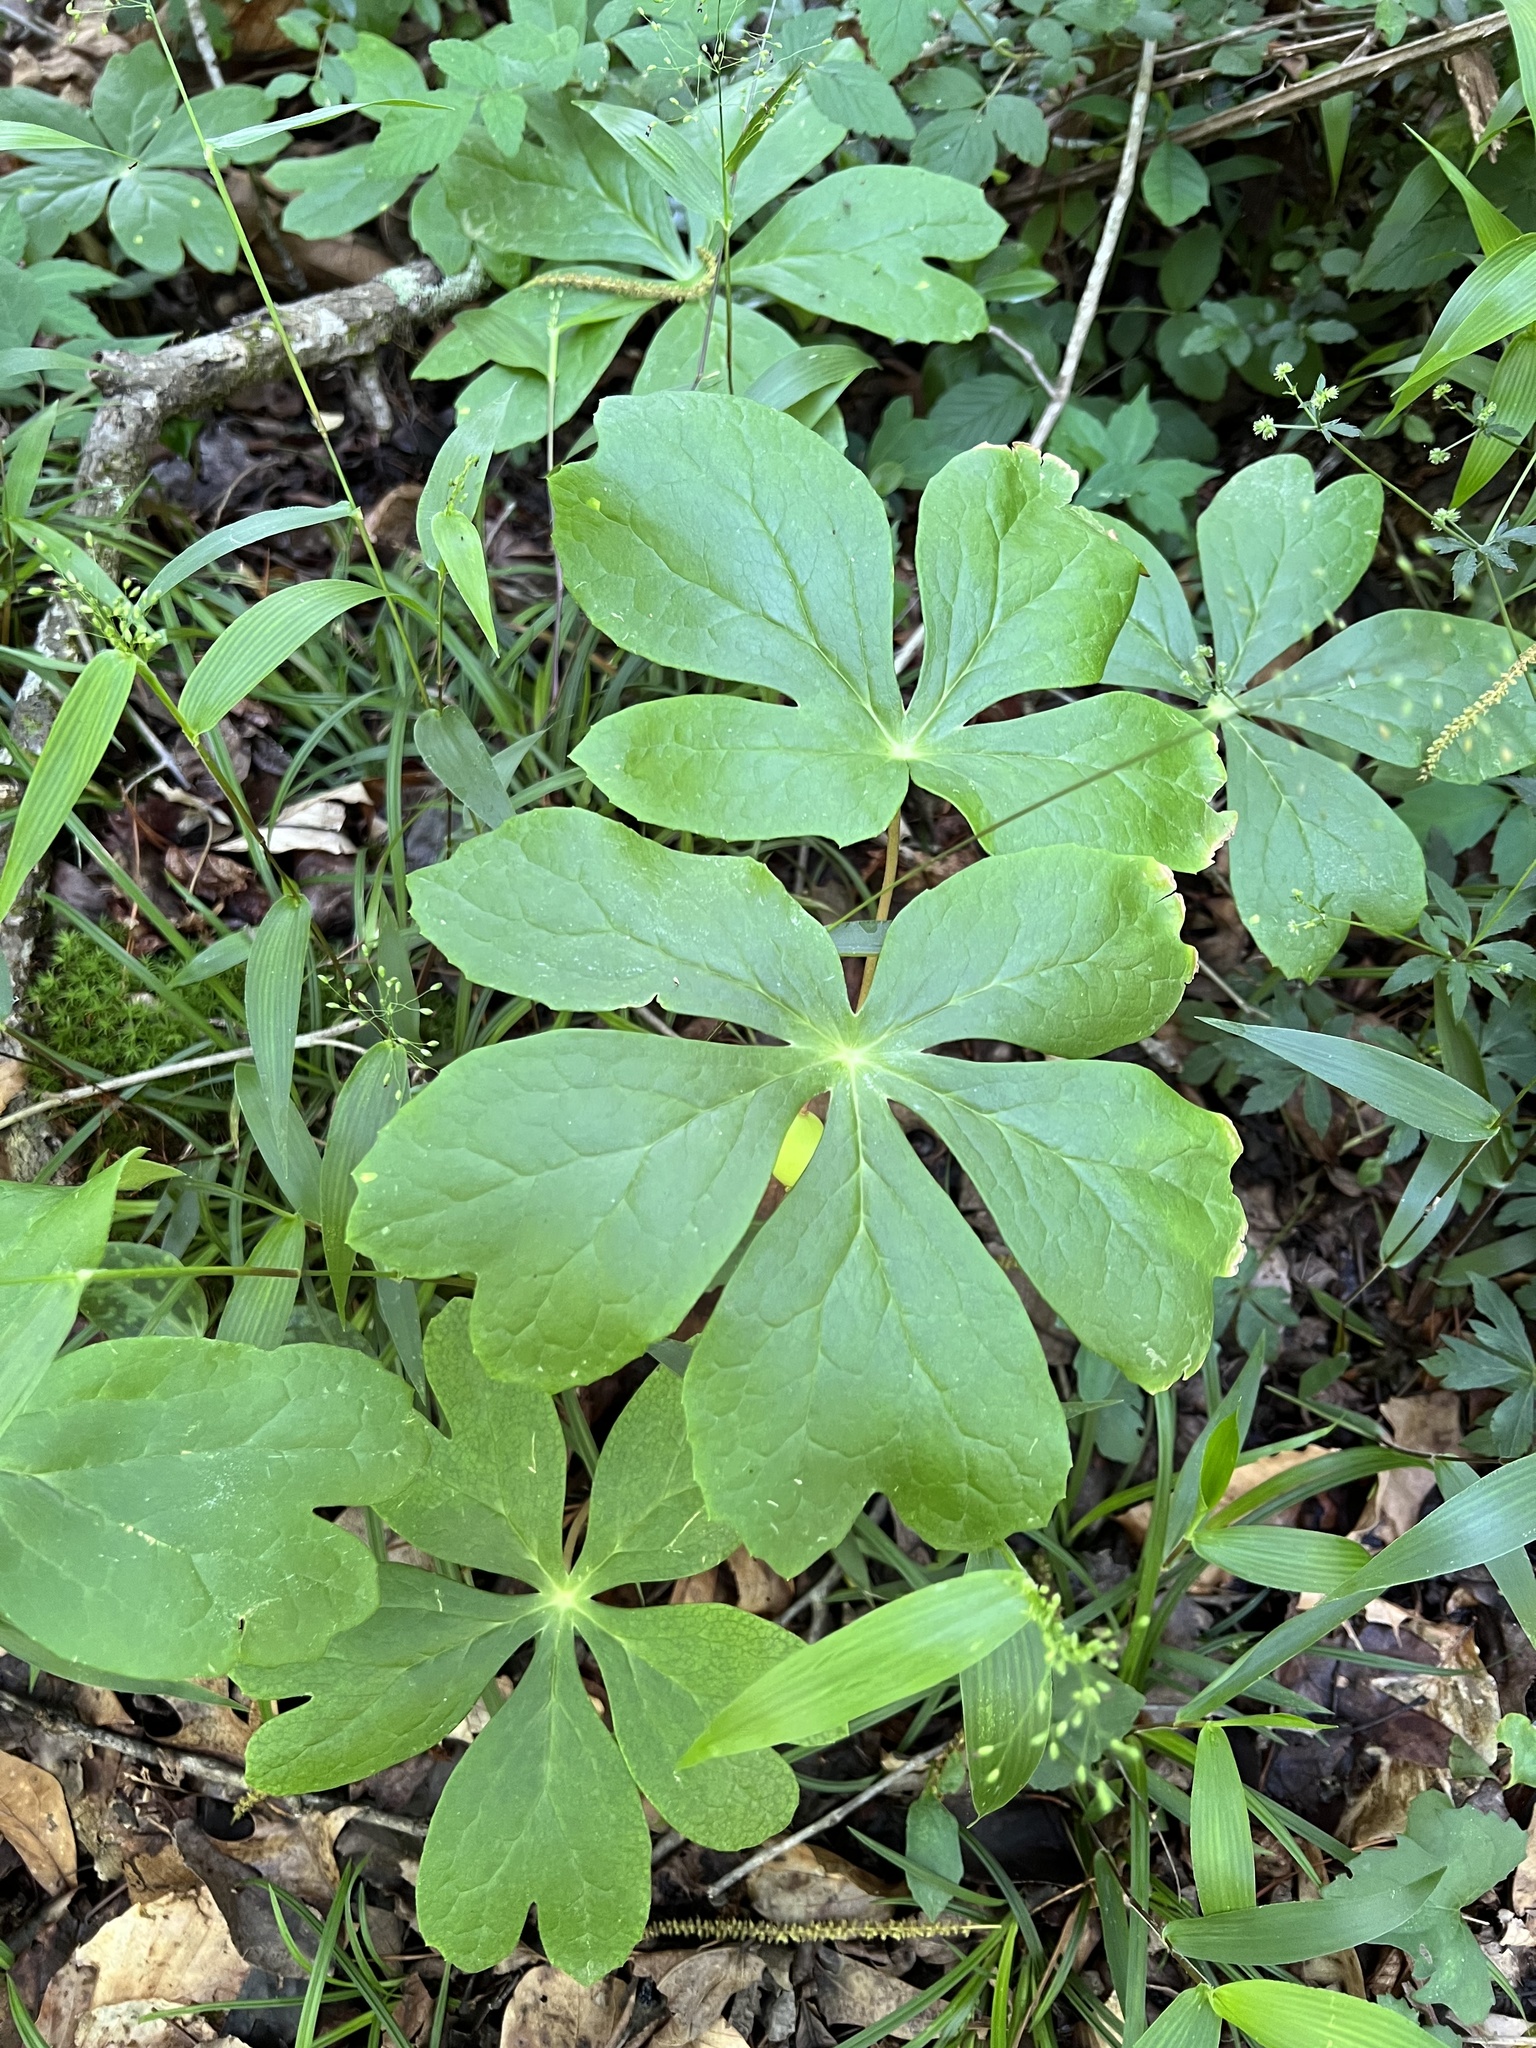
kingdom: Plantae
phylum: Tracheophyta
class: Magnoliopsida
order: Ranunculales
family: Berberidaceae
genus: Podophyllum
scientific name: Podophyllum peltatum
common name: Wild mandrake
